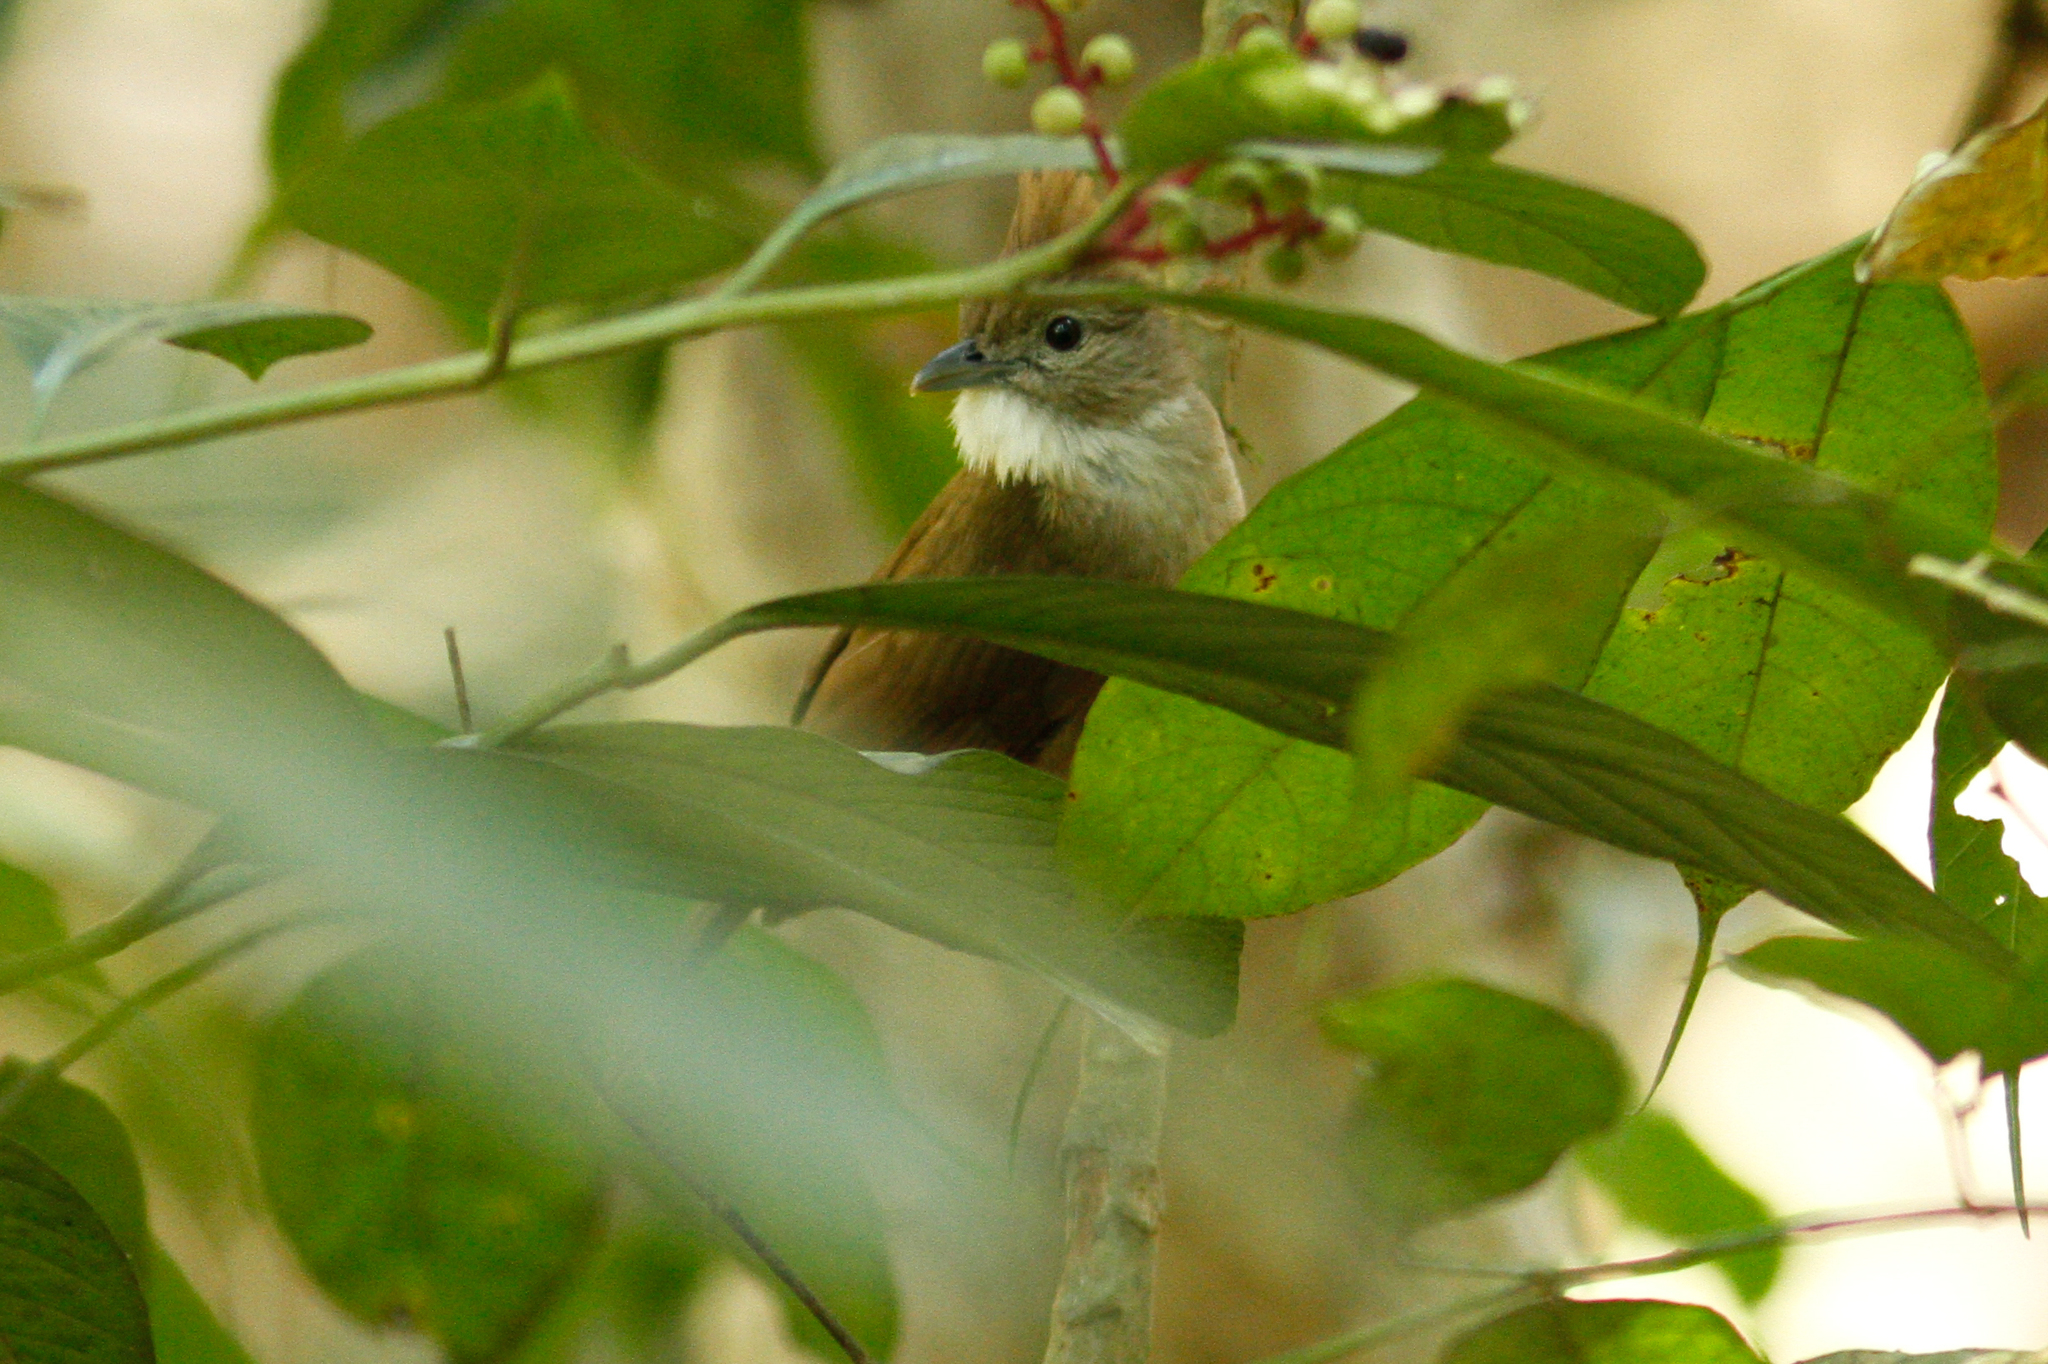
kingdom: Animalia
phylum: Chordata
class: Aves
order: Passeriformes
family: Pycnonotidae
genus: Alophoixus
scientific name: Alophoixus ochraceus
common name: Ochraceous bulbul
